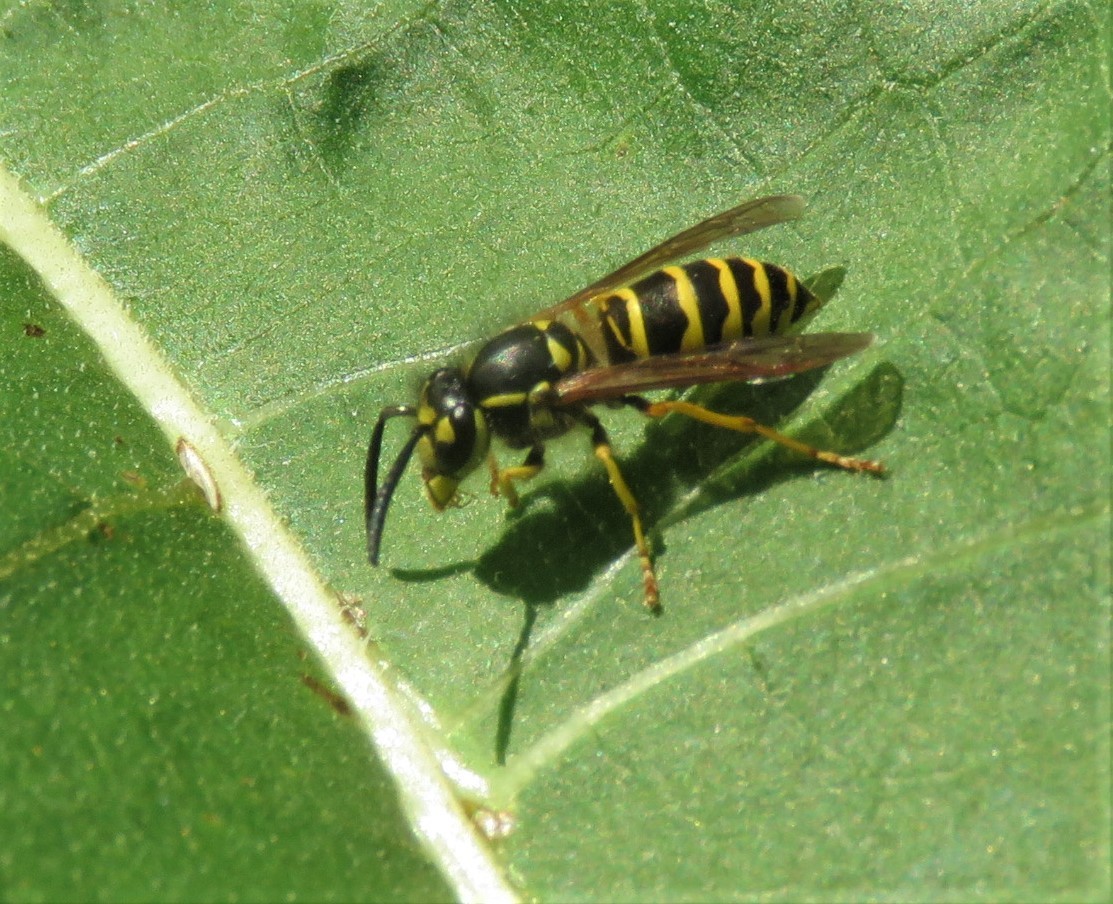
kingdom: Animalia
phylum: Arthropoda
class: Insecta
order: Hymenoptera
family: Vespidae
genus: Vespula
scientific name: Vespula maculifrons
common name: Eastern yellowjacket
